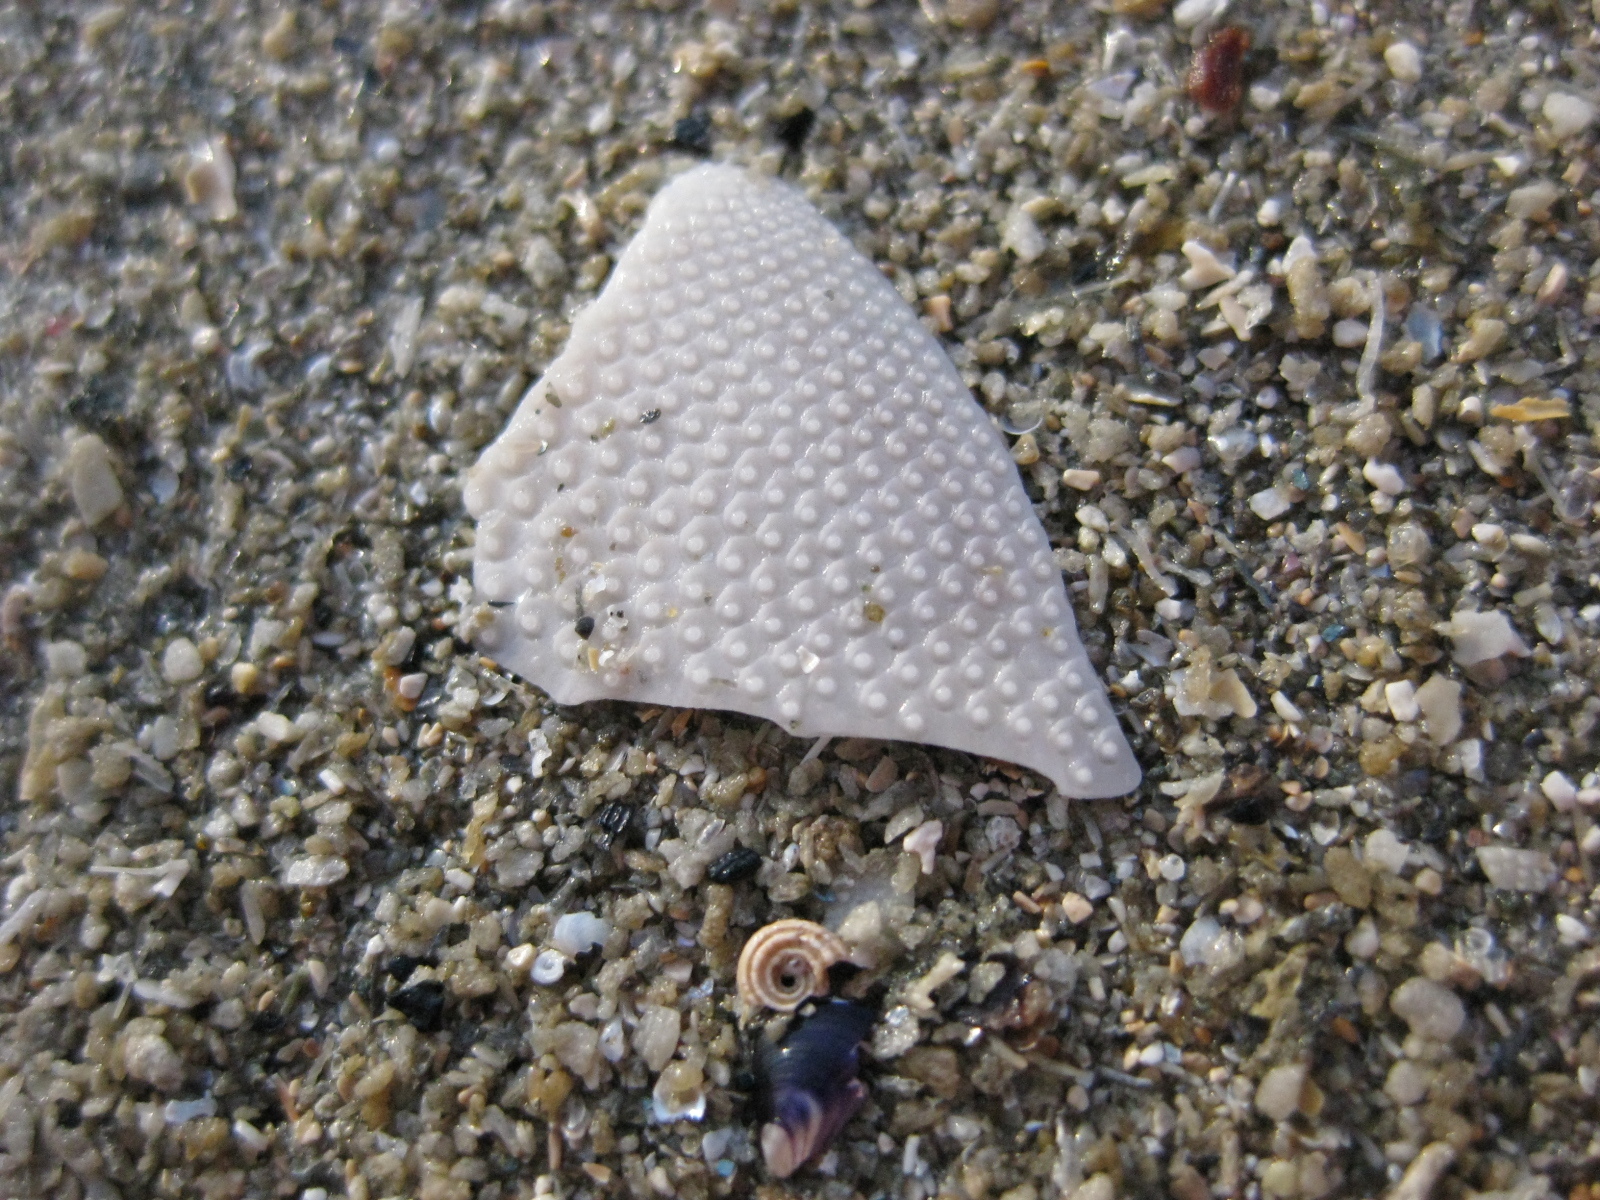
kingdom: Animalia
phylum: Echinodermata
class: Echinoidea
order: Spatangoida
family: Loveniidae
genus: Echinocardium
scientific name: Echinocardium cordatum
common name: Heart-urchin
